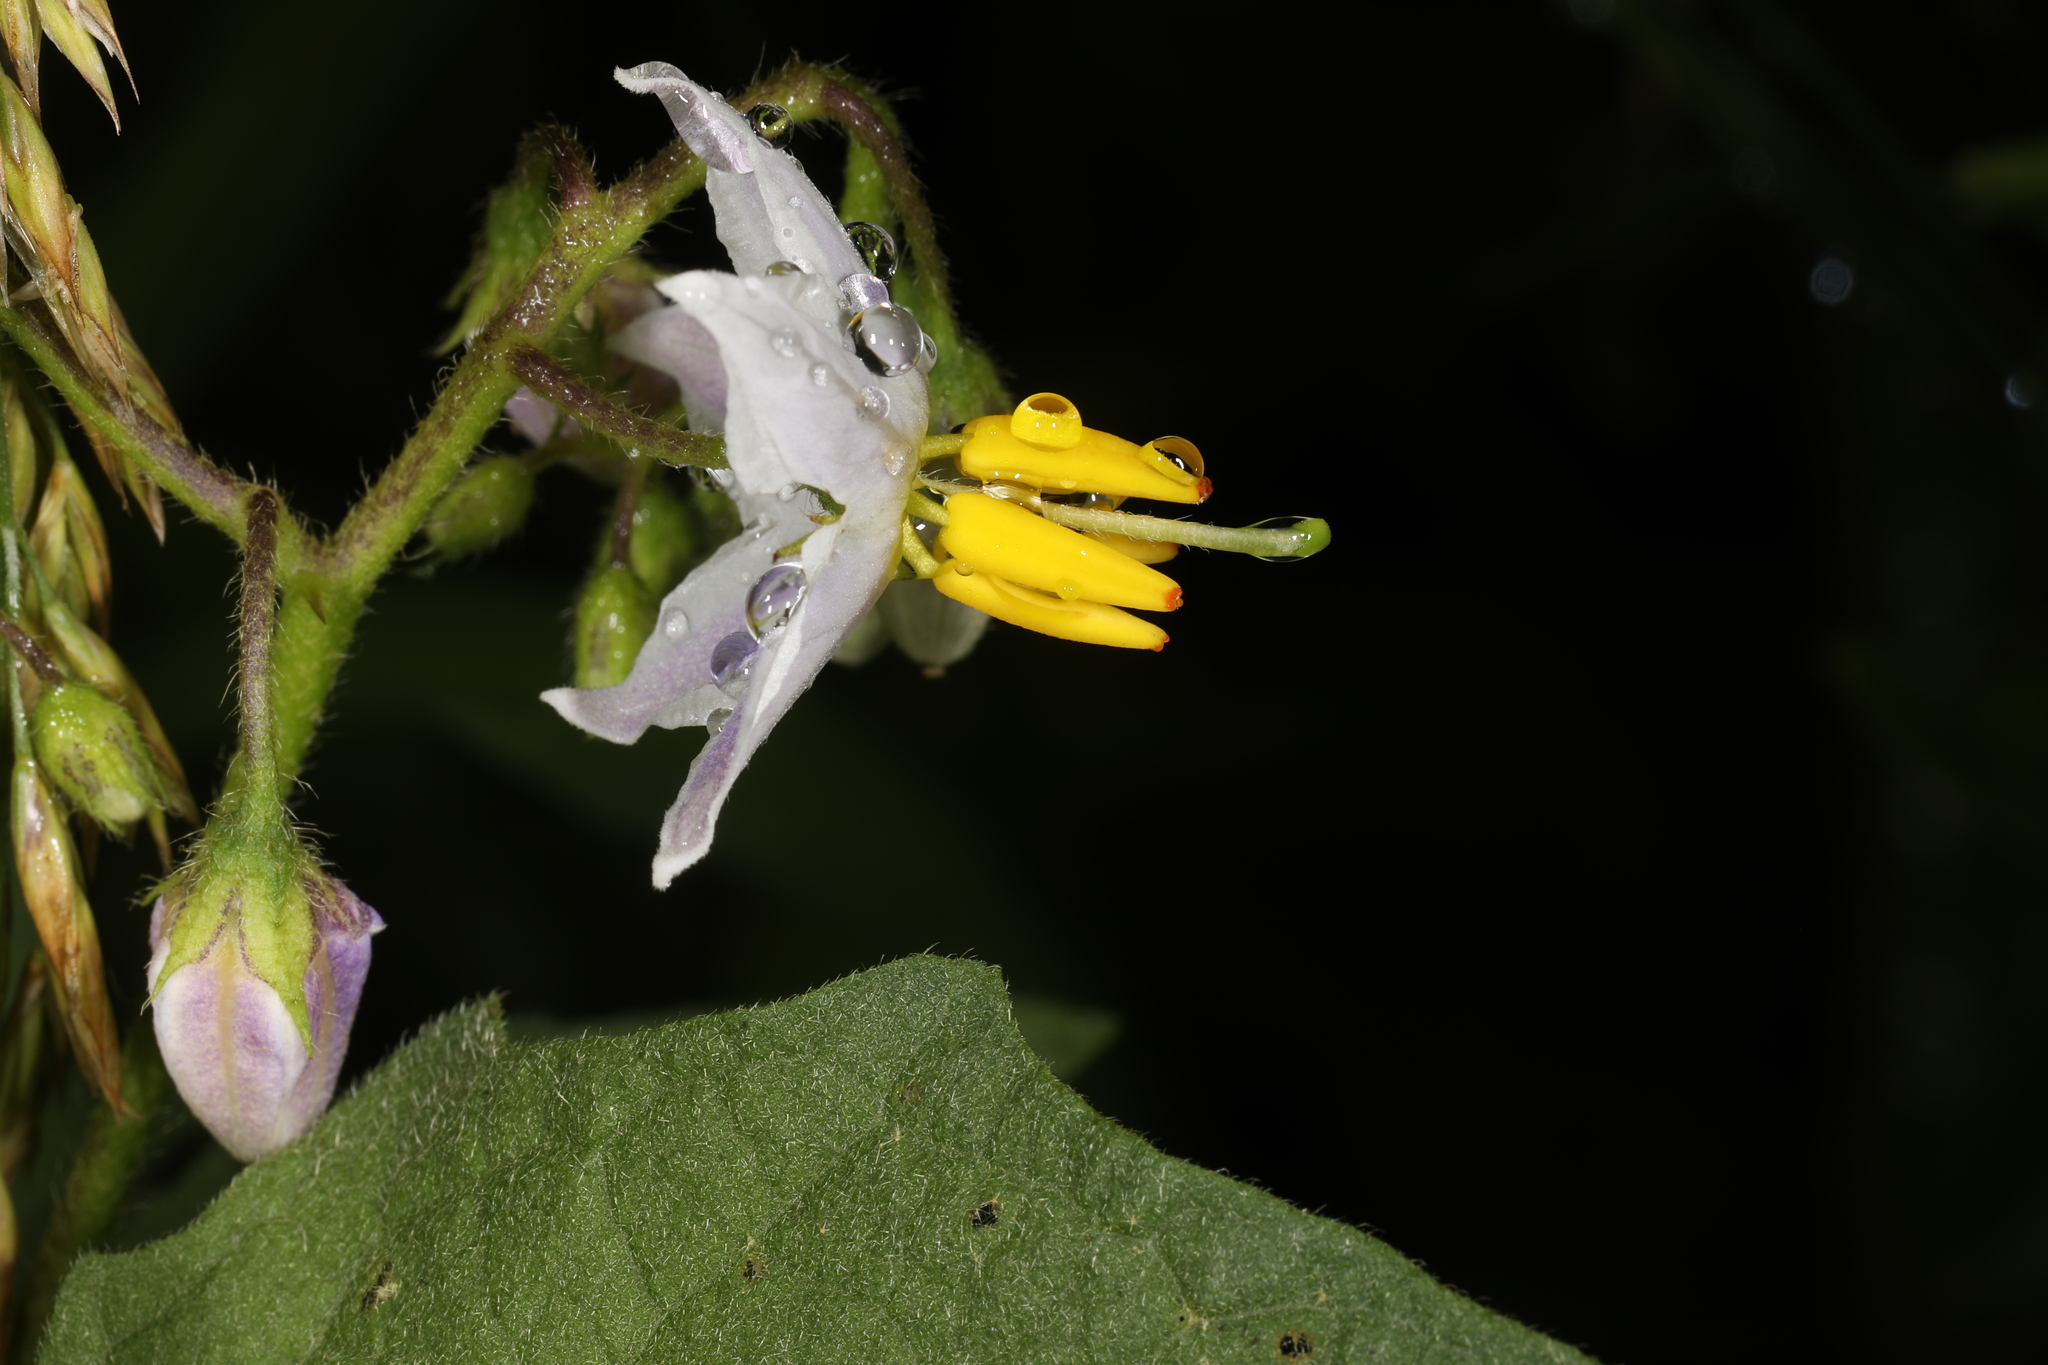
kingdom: Plantae
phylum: Tracheophyta
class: Magnoliopsida
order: Solanales
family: Solanaceae
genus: Solanum
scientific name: Solanum carolinense
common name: Horse-nettle
